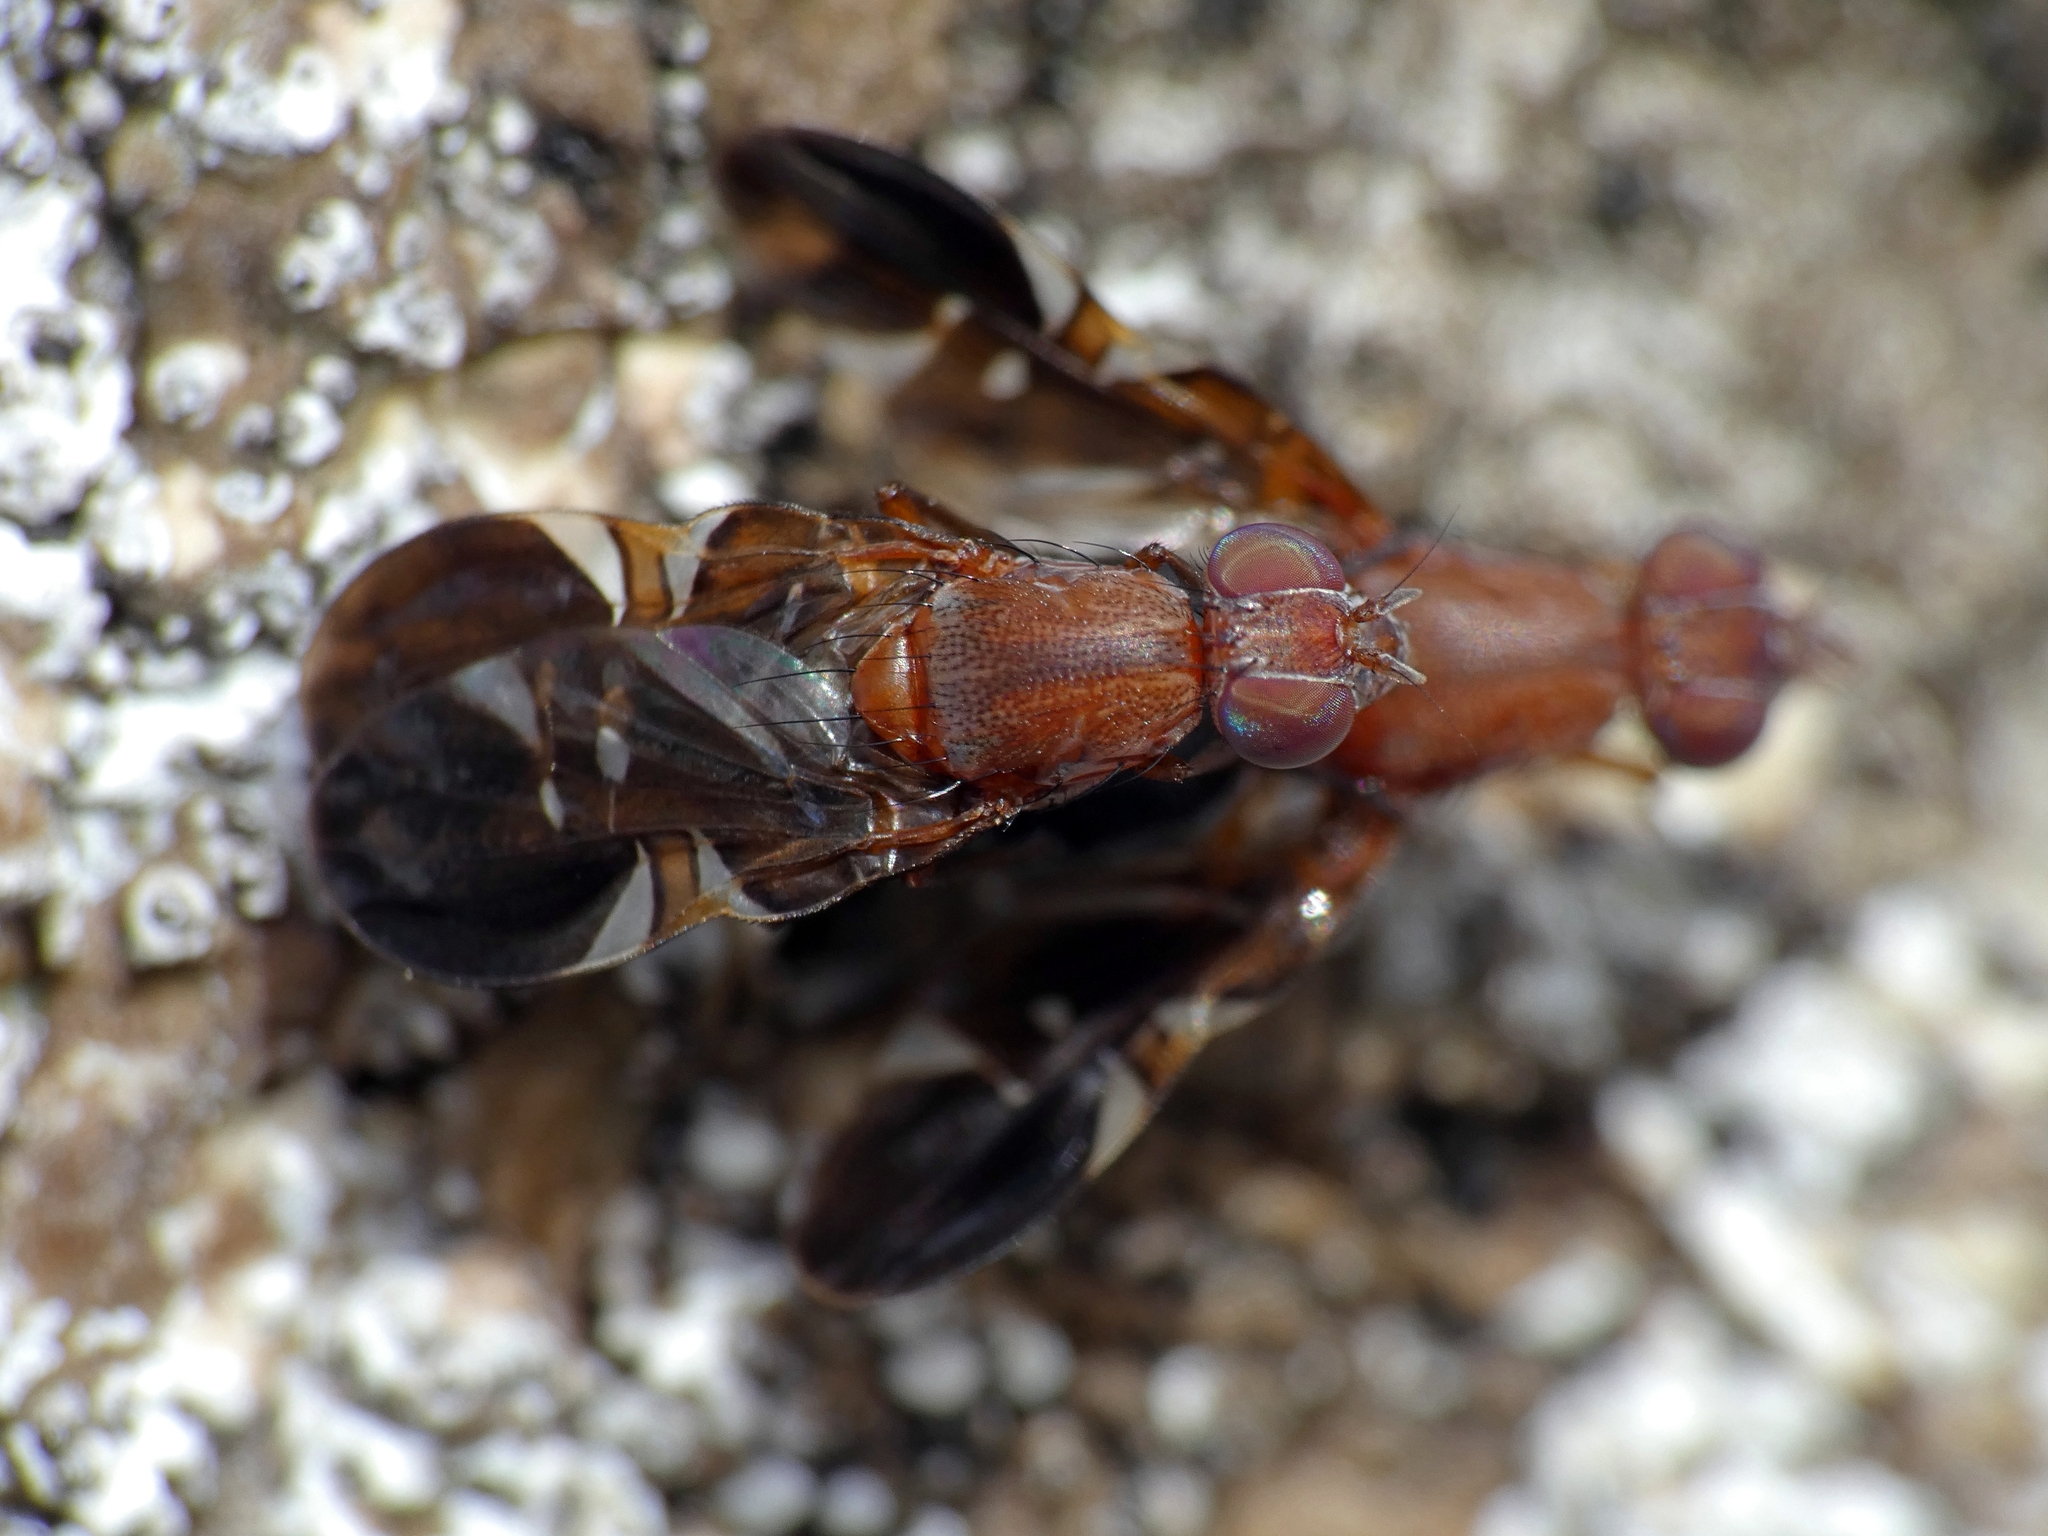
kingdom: Animalia
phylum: Arthropoda
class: Insecta
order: Diptera
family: Ulidiidae
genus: Delphinia
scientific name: Delphinia picta
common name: Common picture-winged fly
